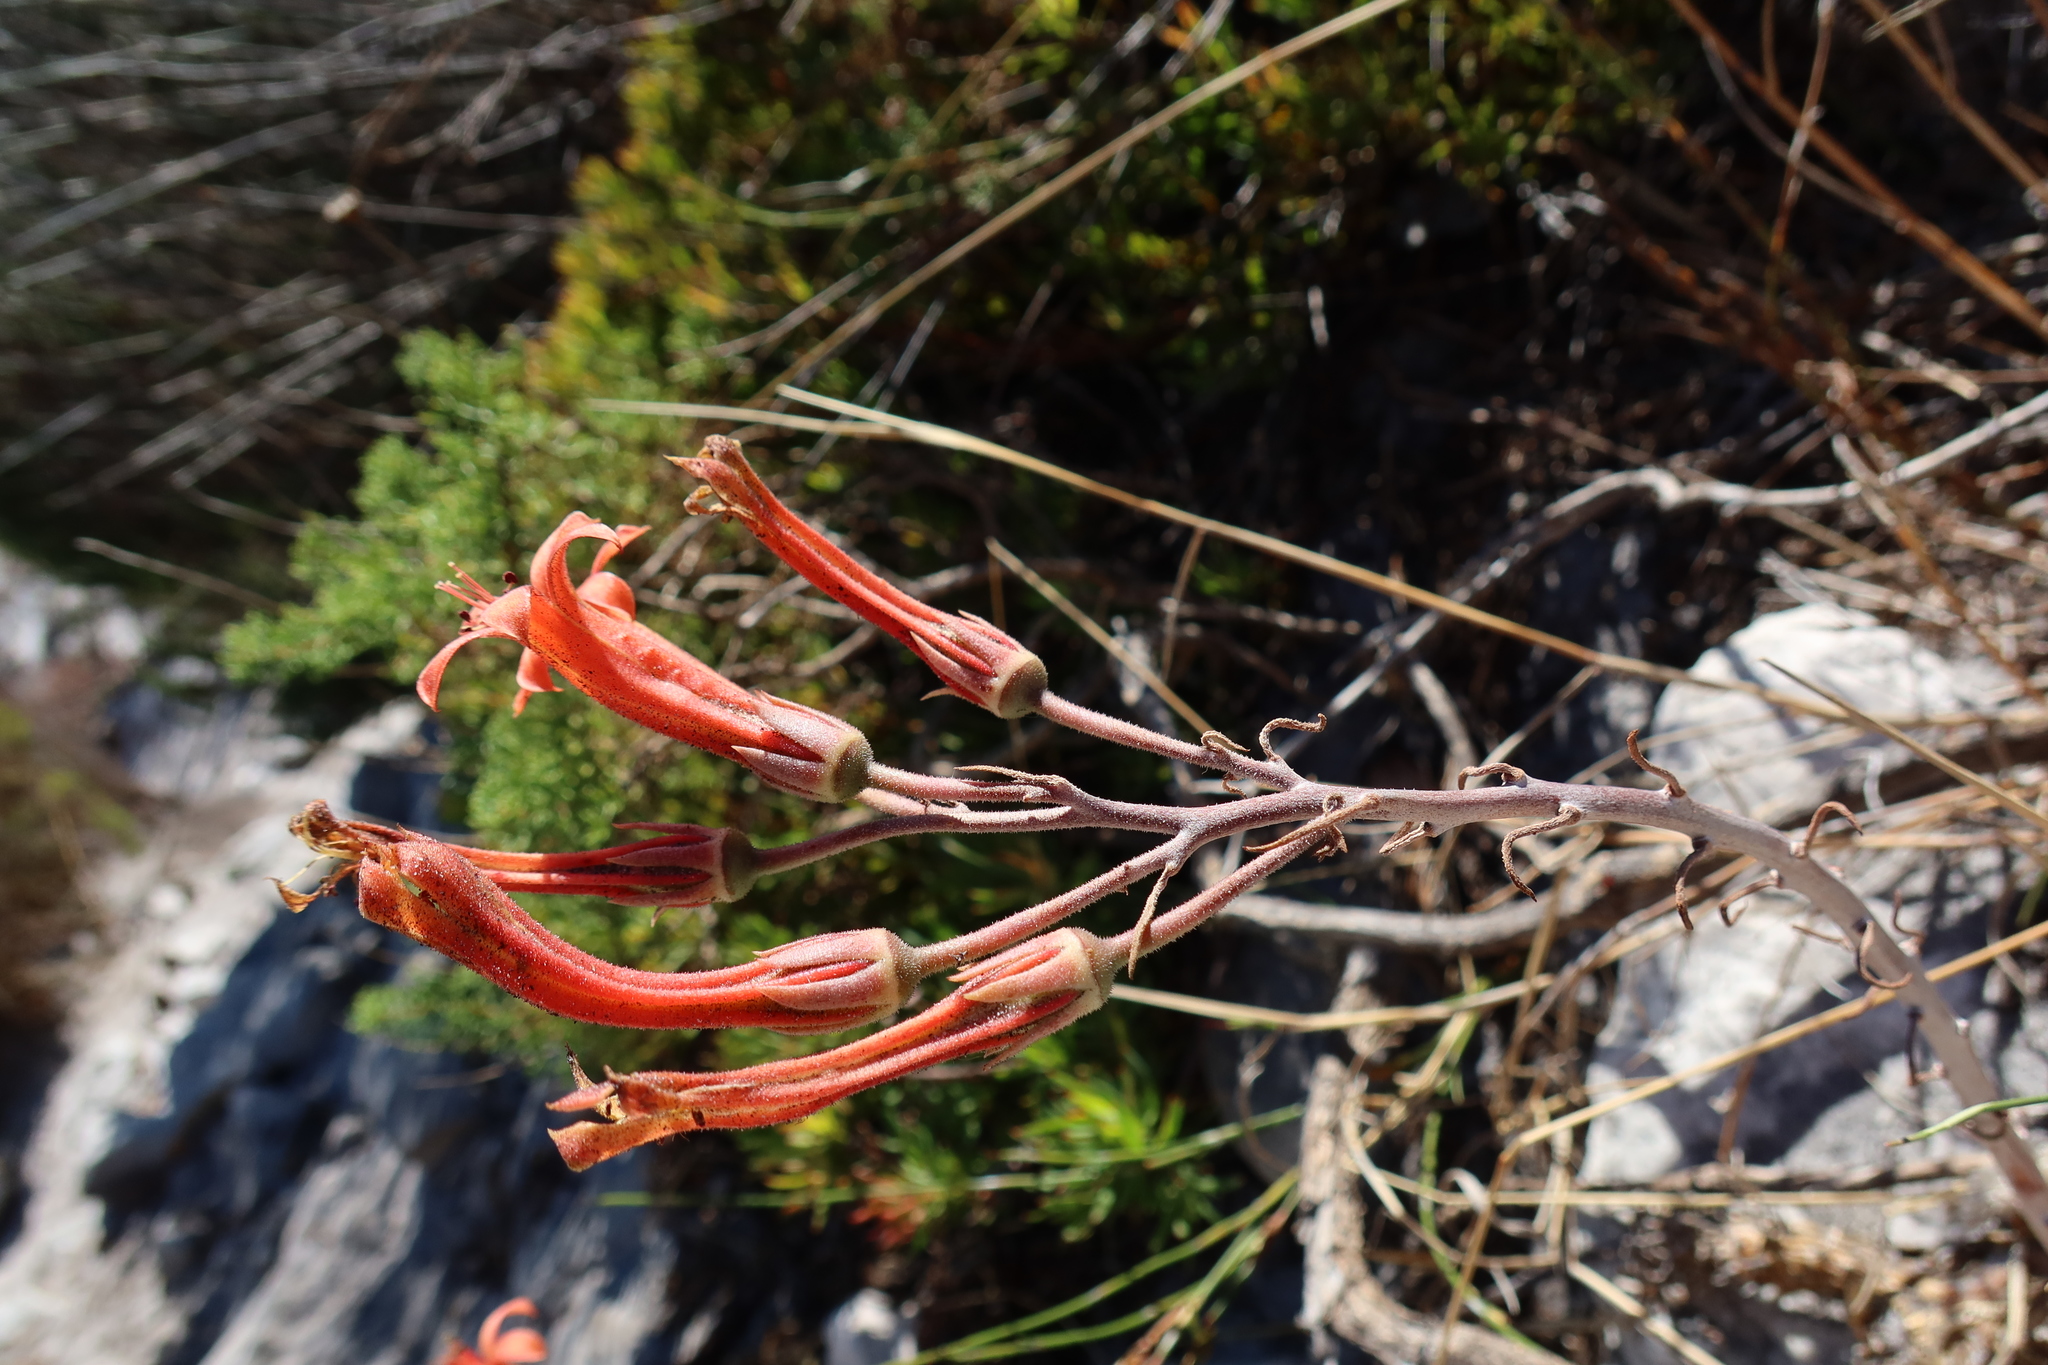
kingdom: Plantae
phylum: Tracheophyta
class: Magnoliopsida
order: Saxifragales
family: Crassulaceae
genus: Tylecodon
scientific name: Tylecodon grandiflorus
